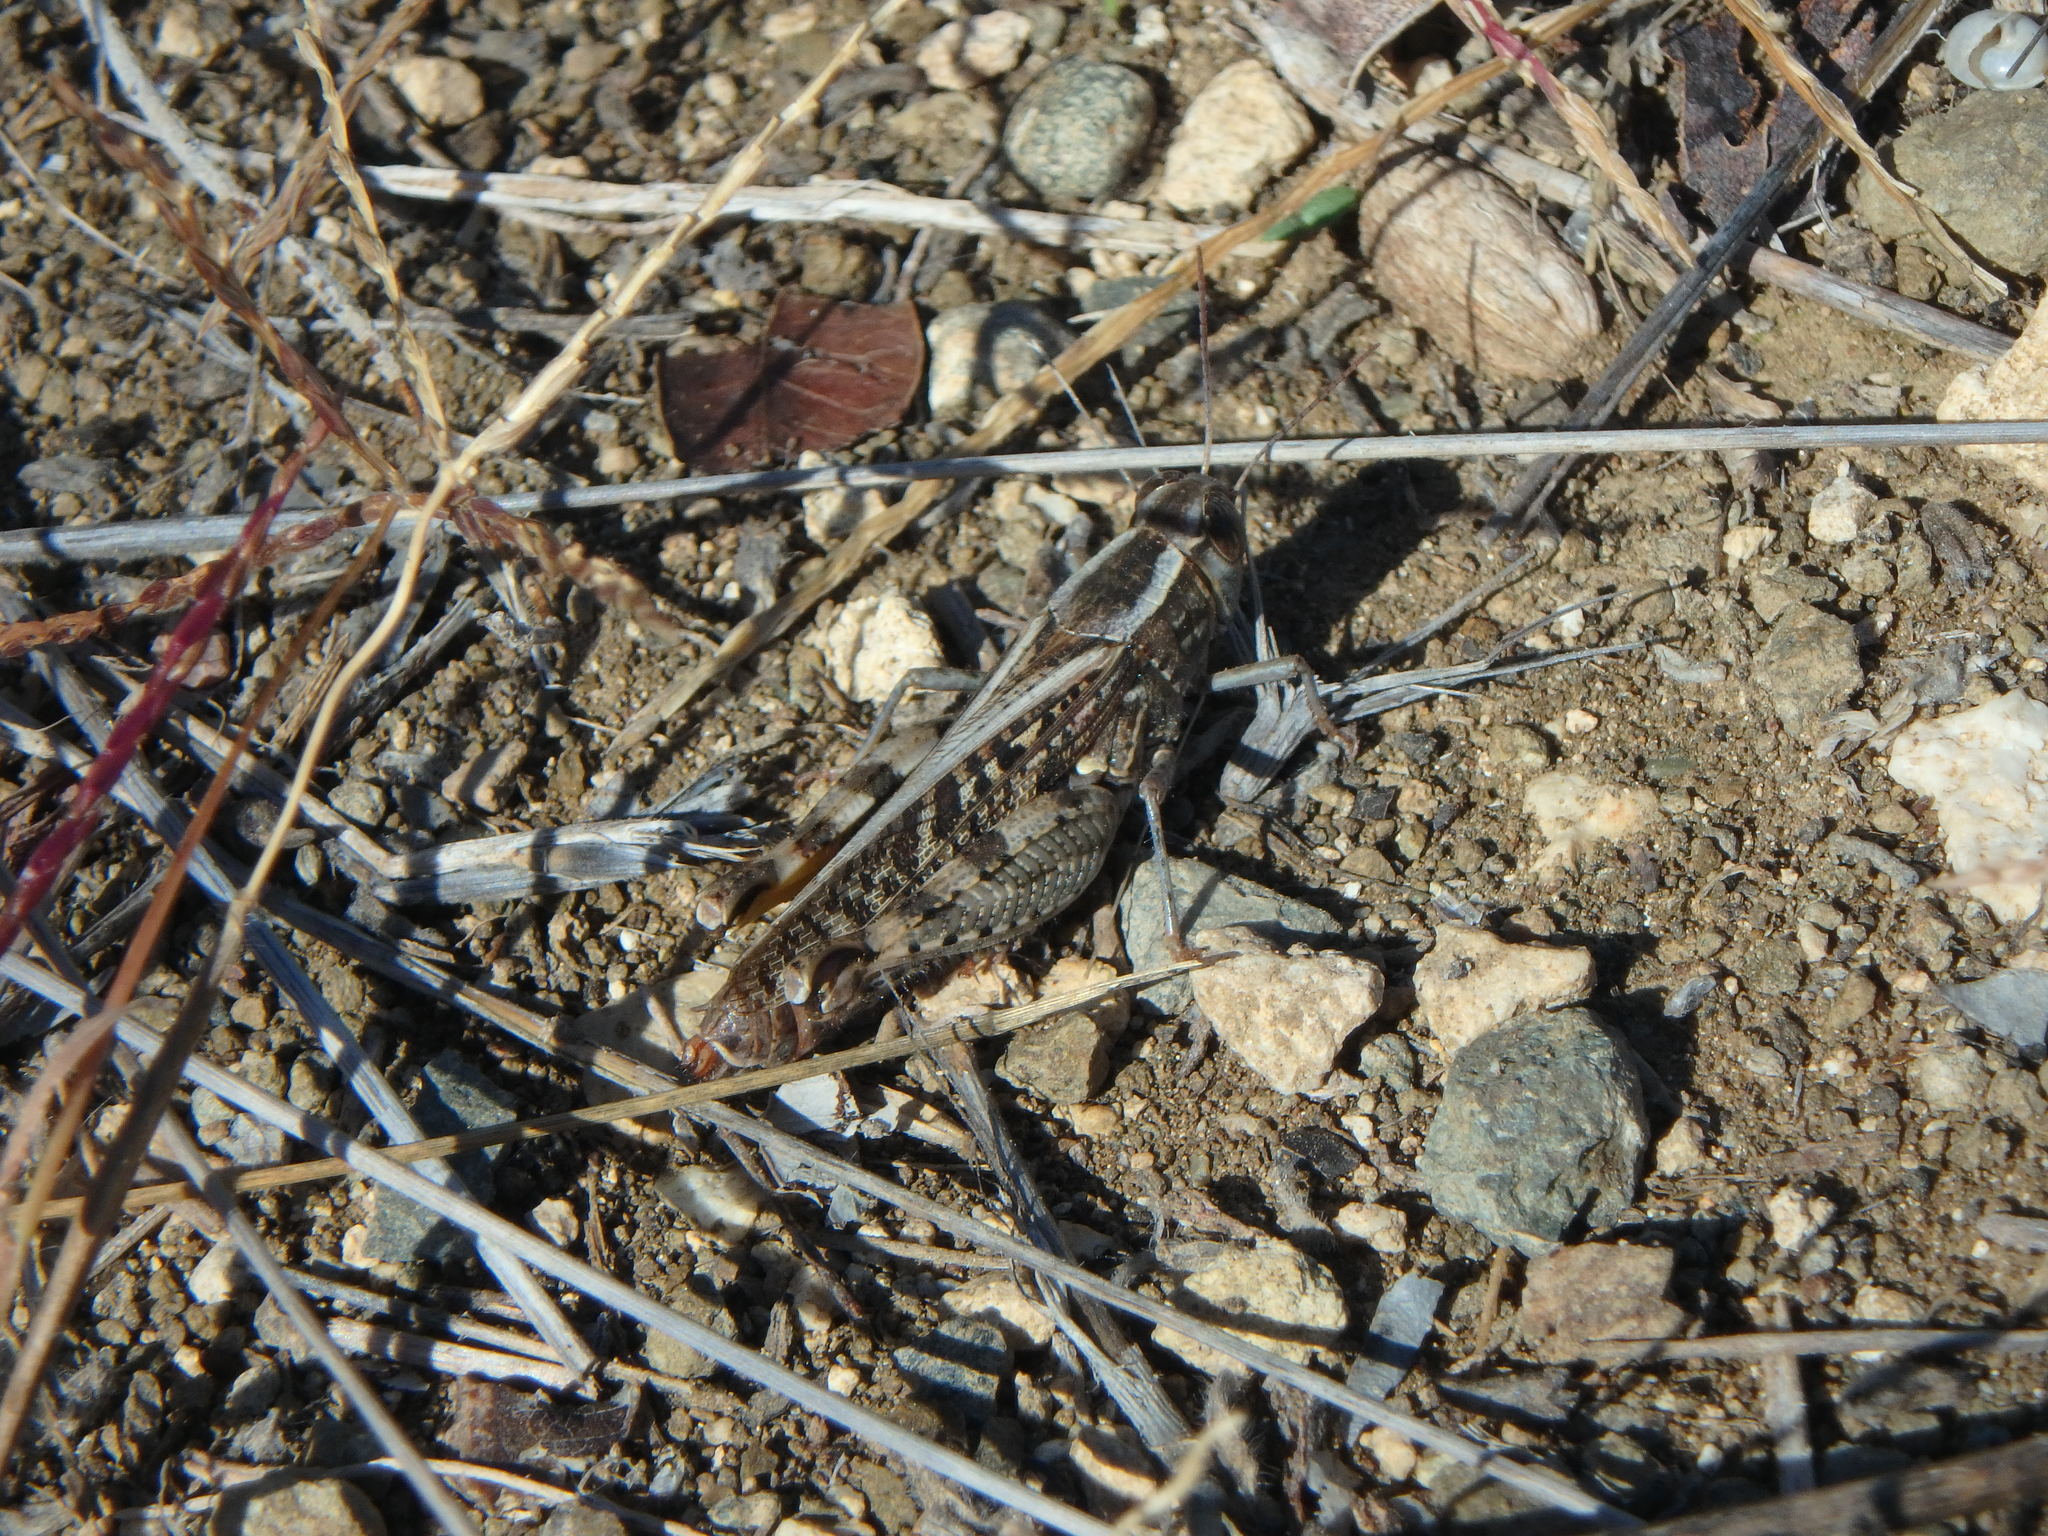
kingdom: Animalia
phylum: Arthropoda
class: Insecta
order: Orthoptera
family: Acrididae
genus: Calliptamus
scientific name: Calliptamus barbarus
